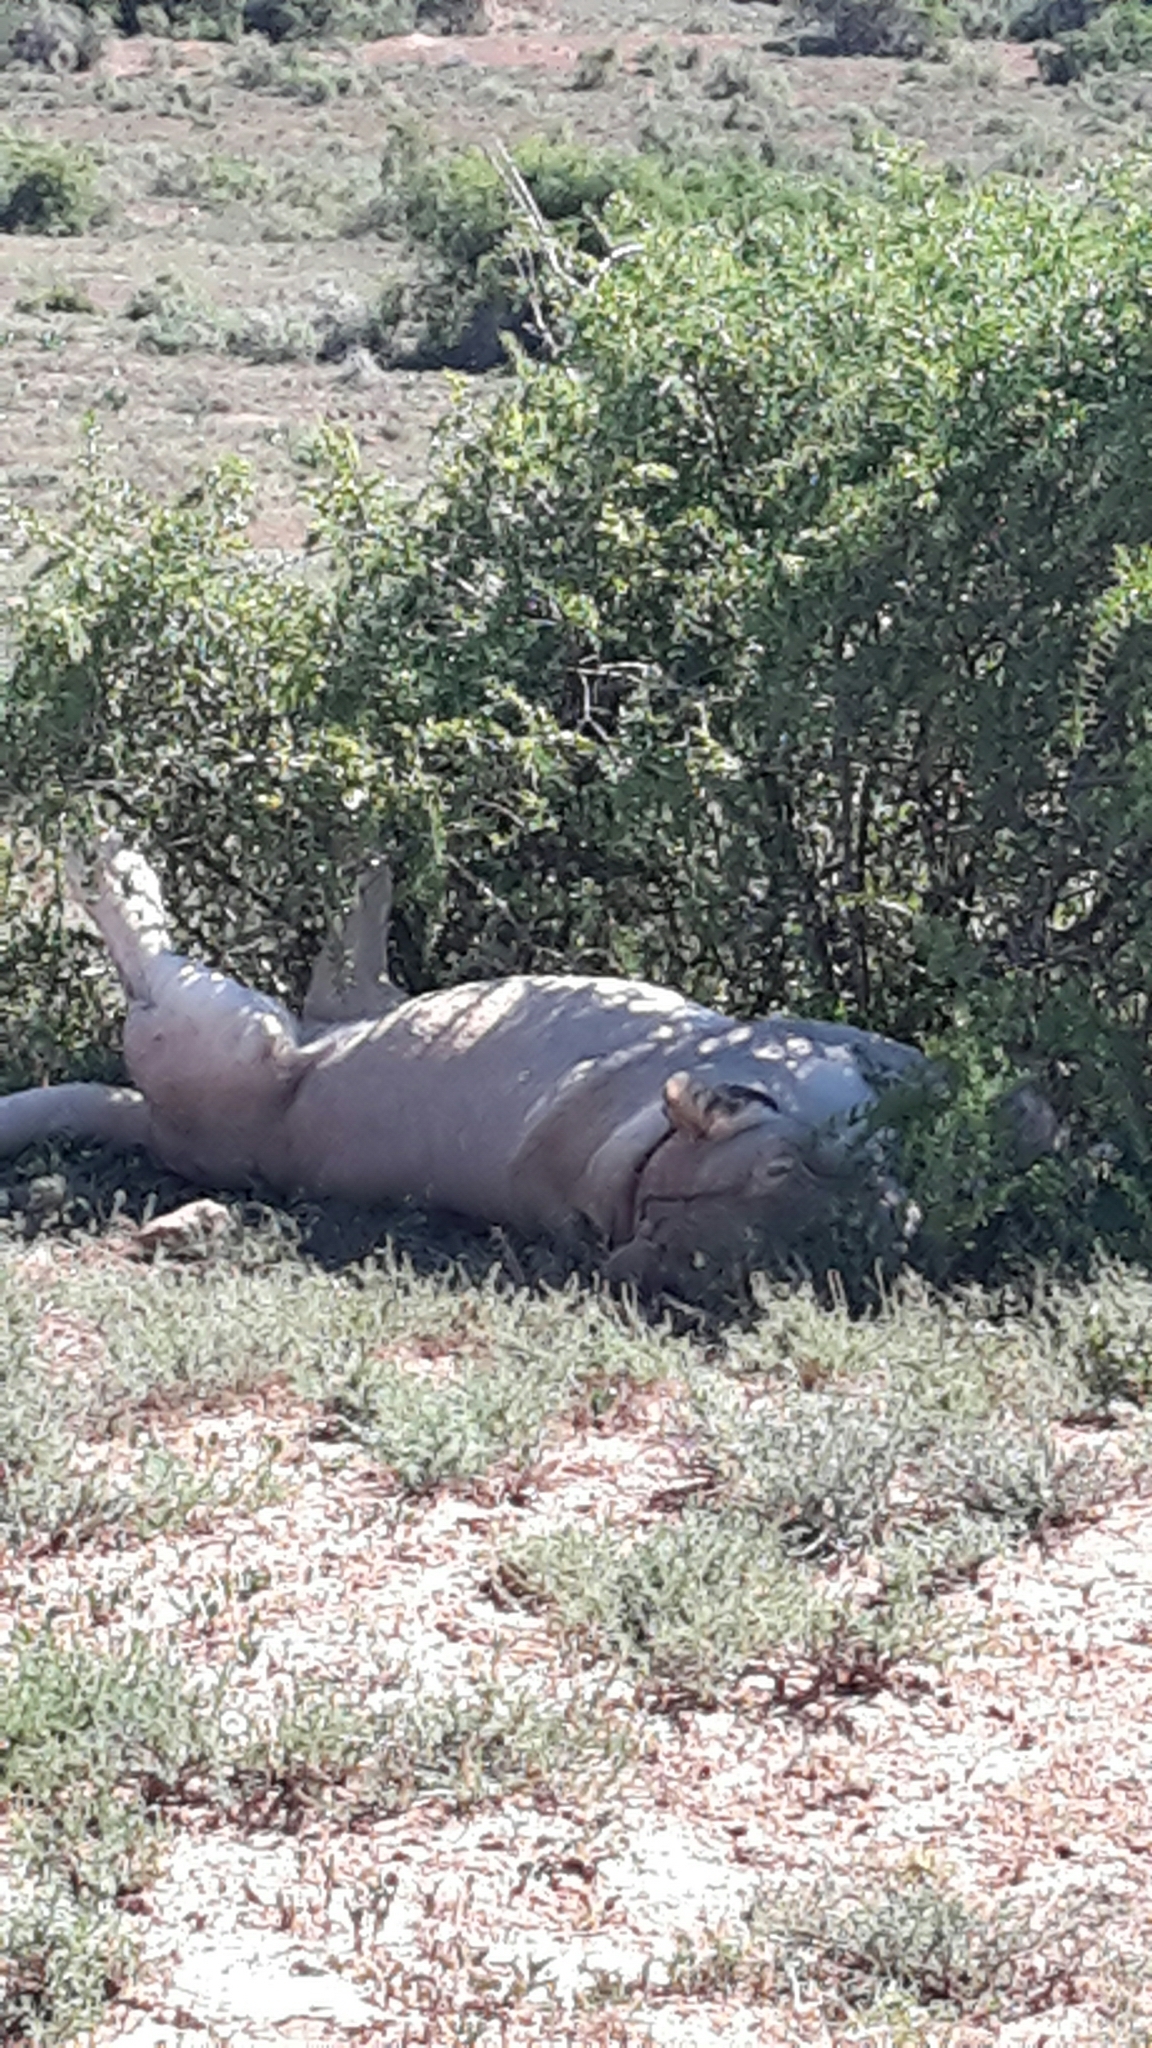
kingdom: Animalia
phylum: Chordata
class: Mammalia
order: Carnivora
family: Felidae
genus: Panthera
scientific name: Panthera leo
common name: Lion
